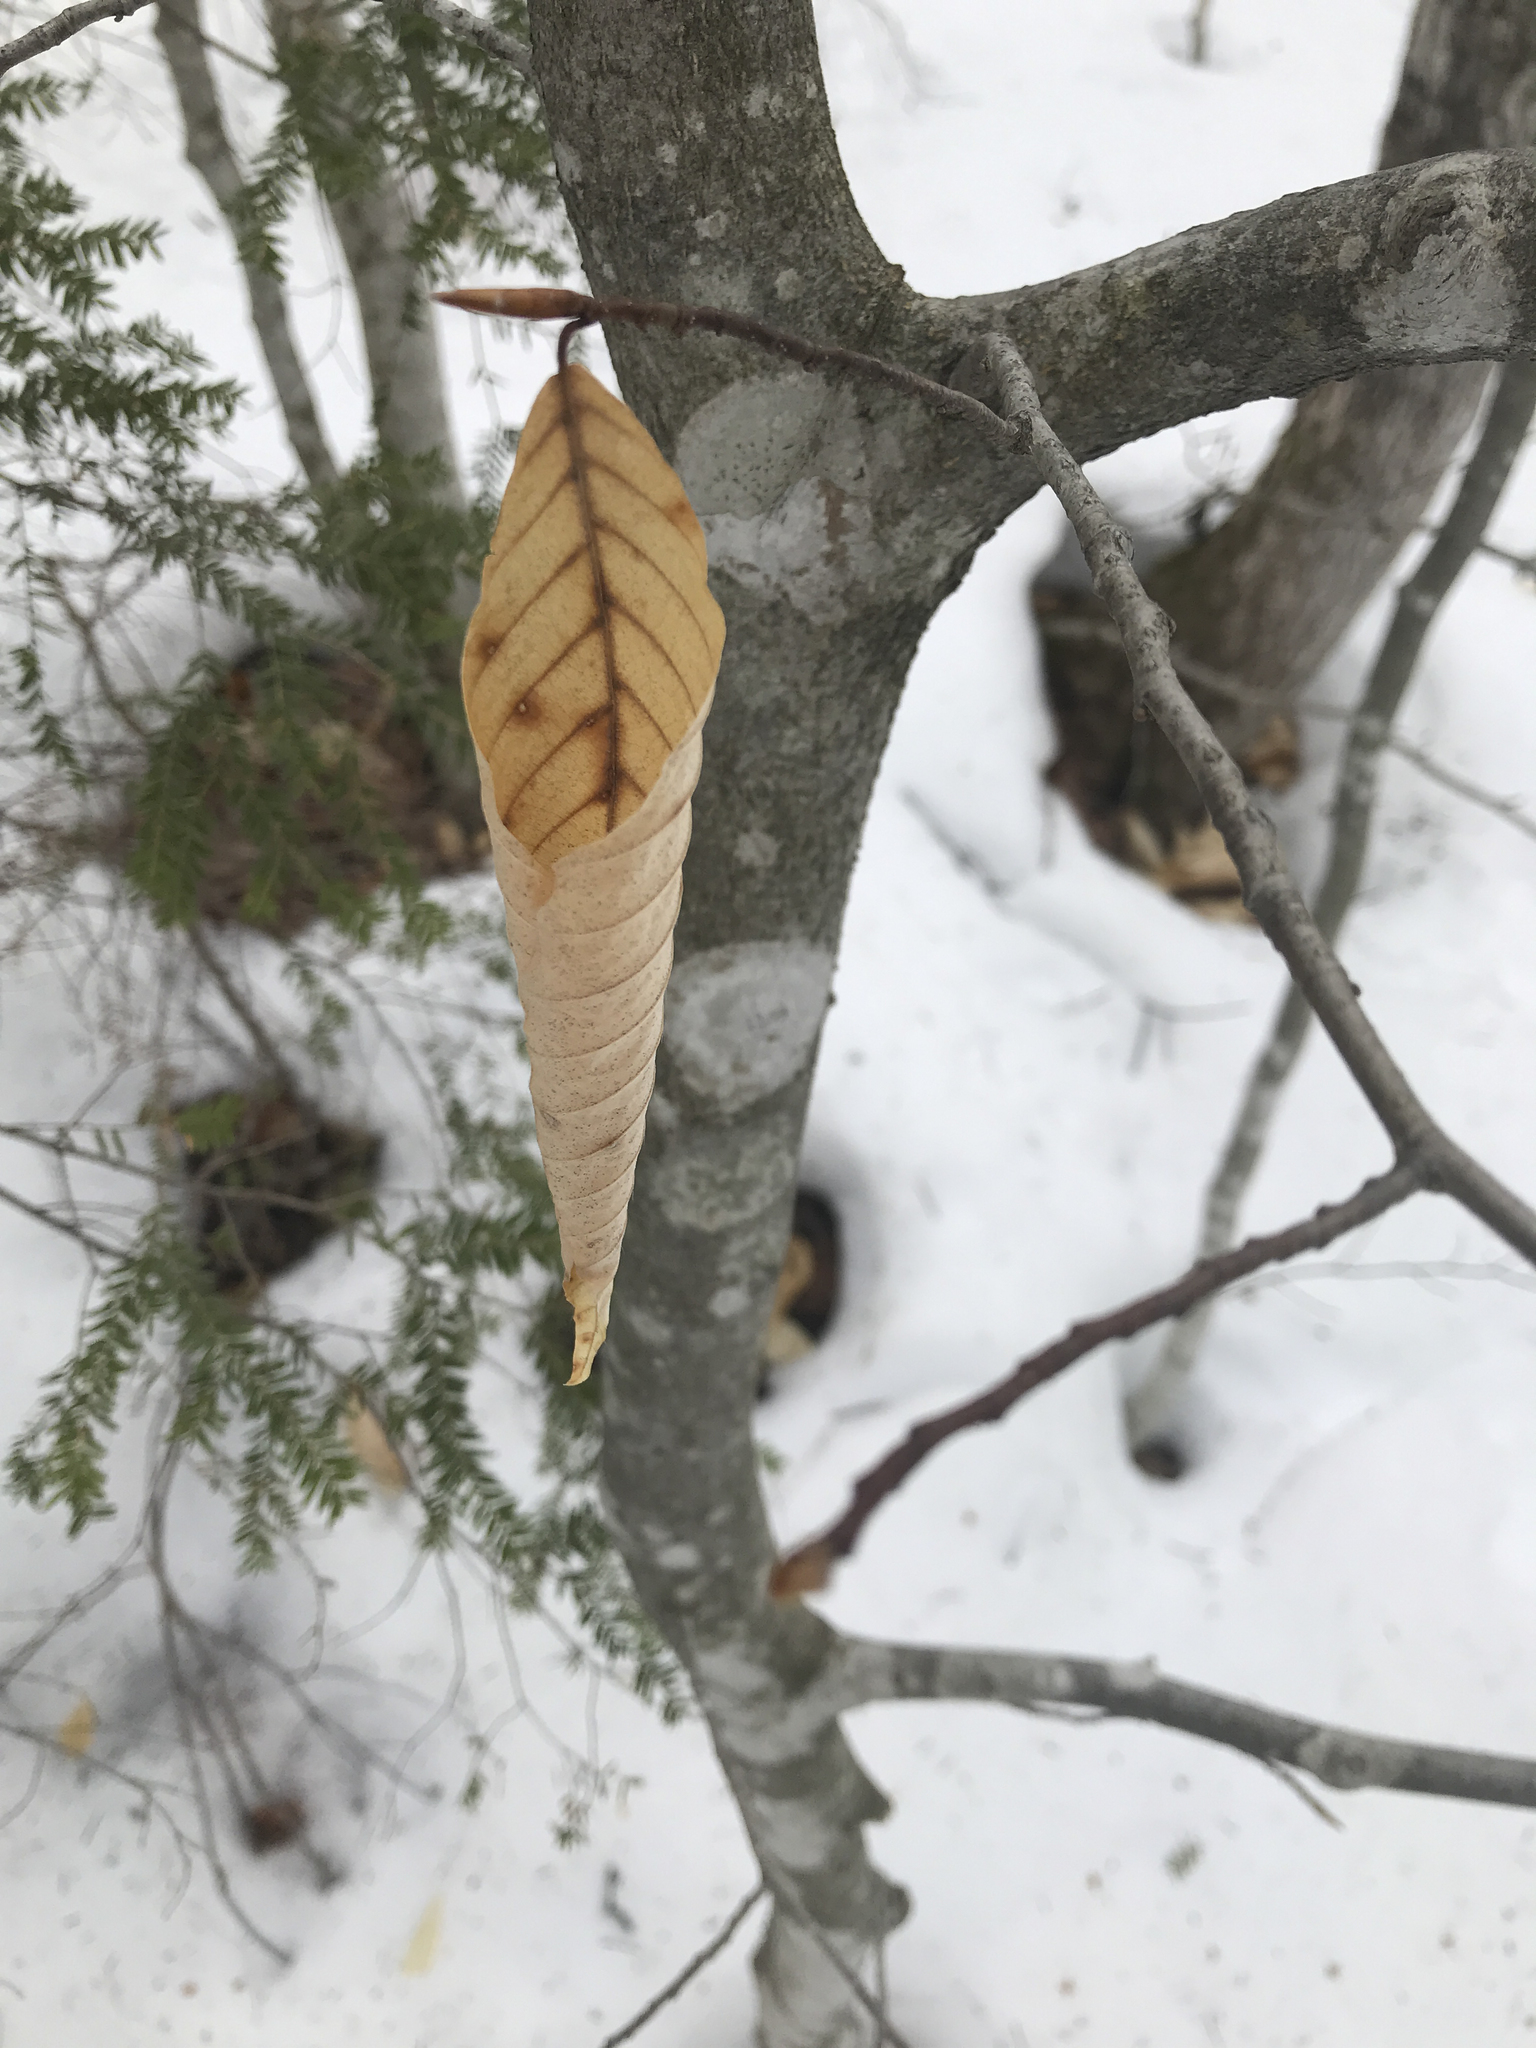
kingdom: Plantae
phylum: Tracheophyta
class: Magnoliopsida
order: Fagales
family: Fagaceae
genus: Fagus
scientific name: Fagus grandifolia
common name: American beech
